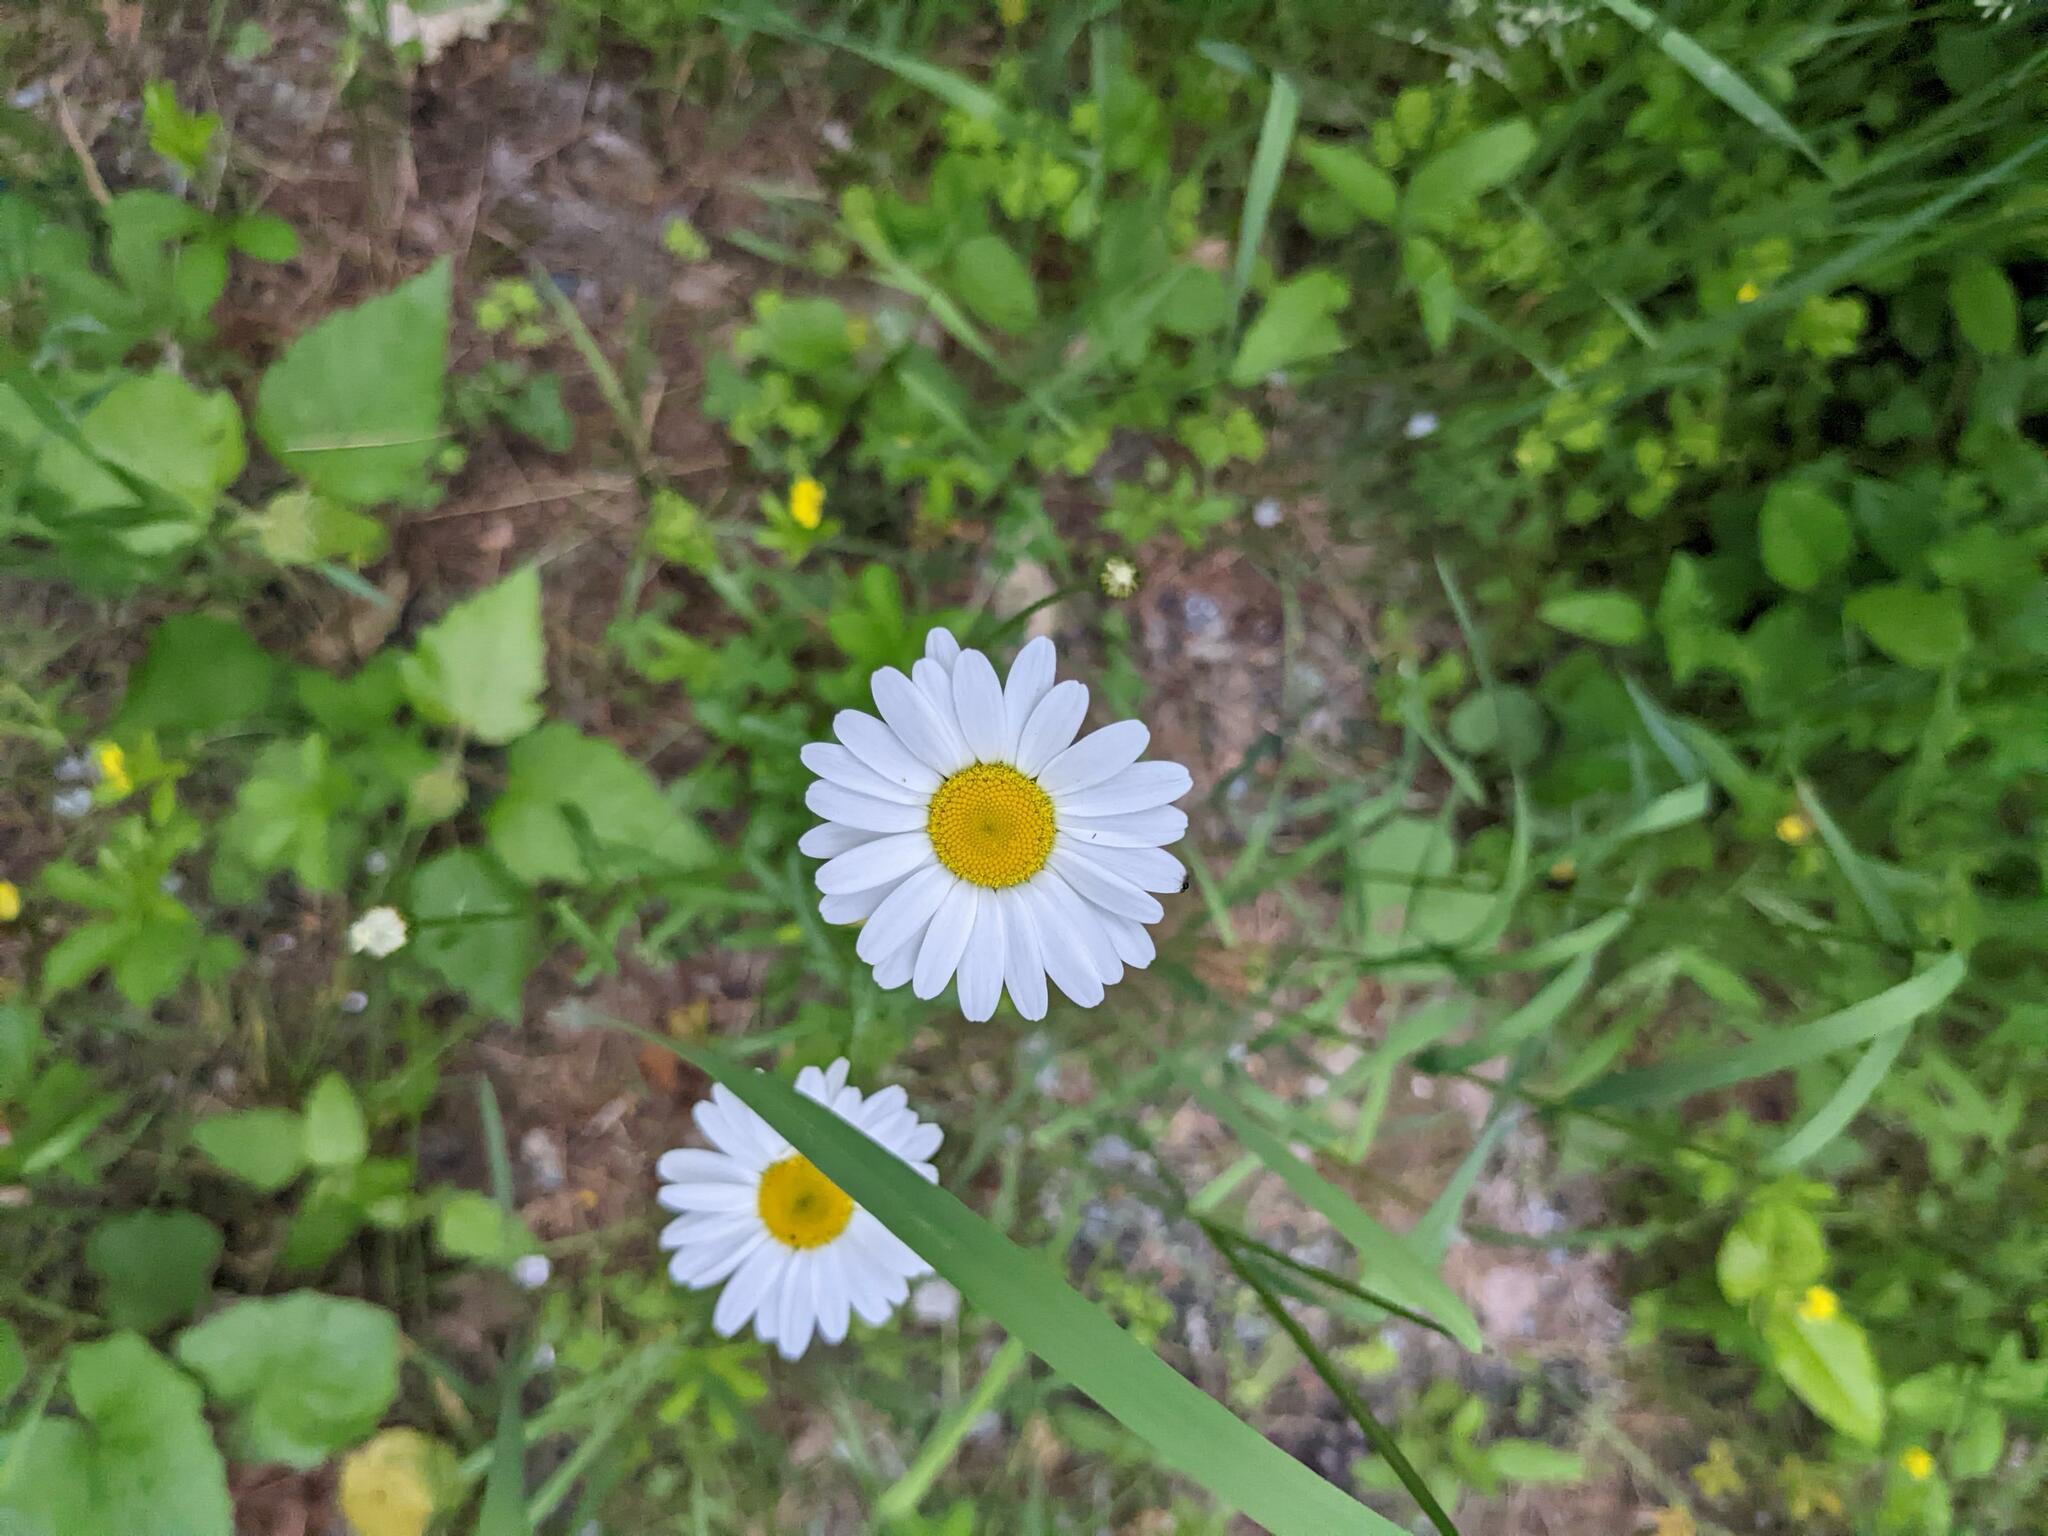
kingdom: Plantae
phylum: Tracheophyta
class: Magnoliopsida
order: Asterales
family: Asteraceae
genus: Leucanthemum
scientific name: Leucanthemum vulgare
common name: Oxeye daisy
